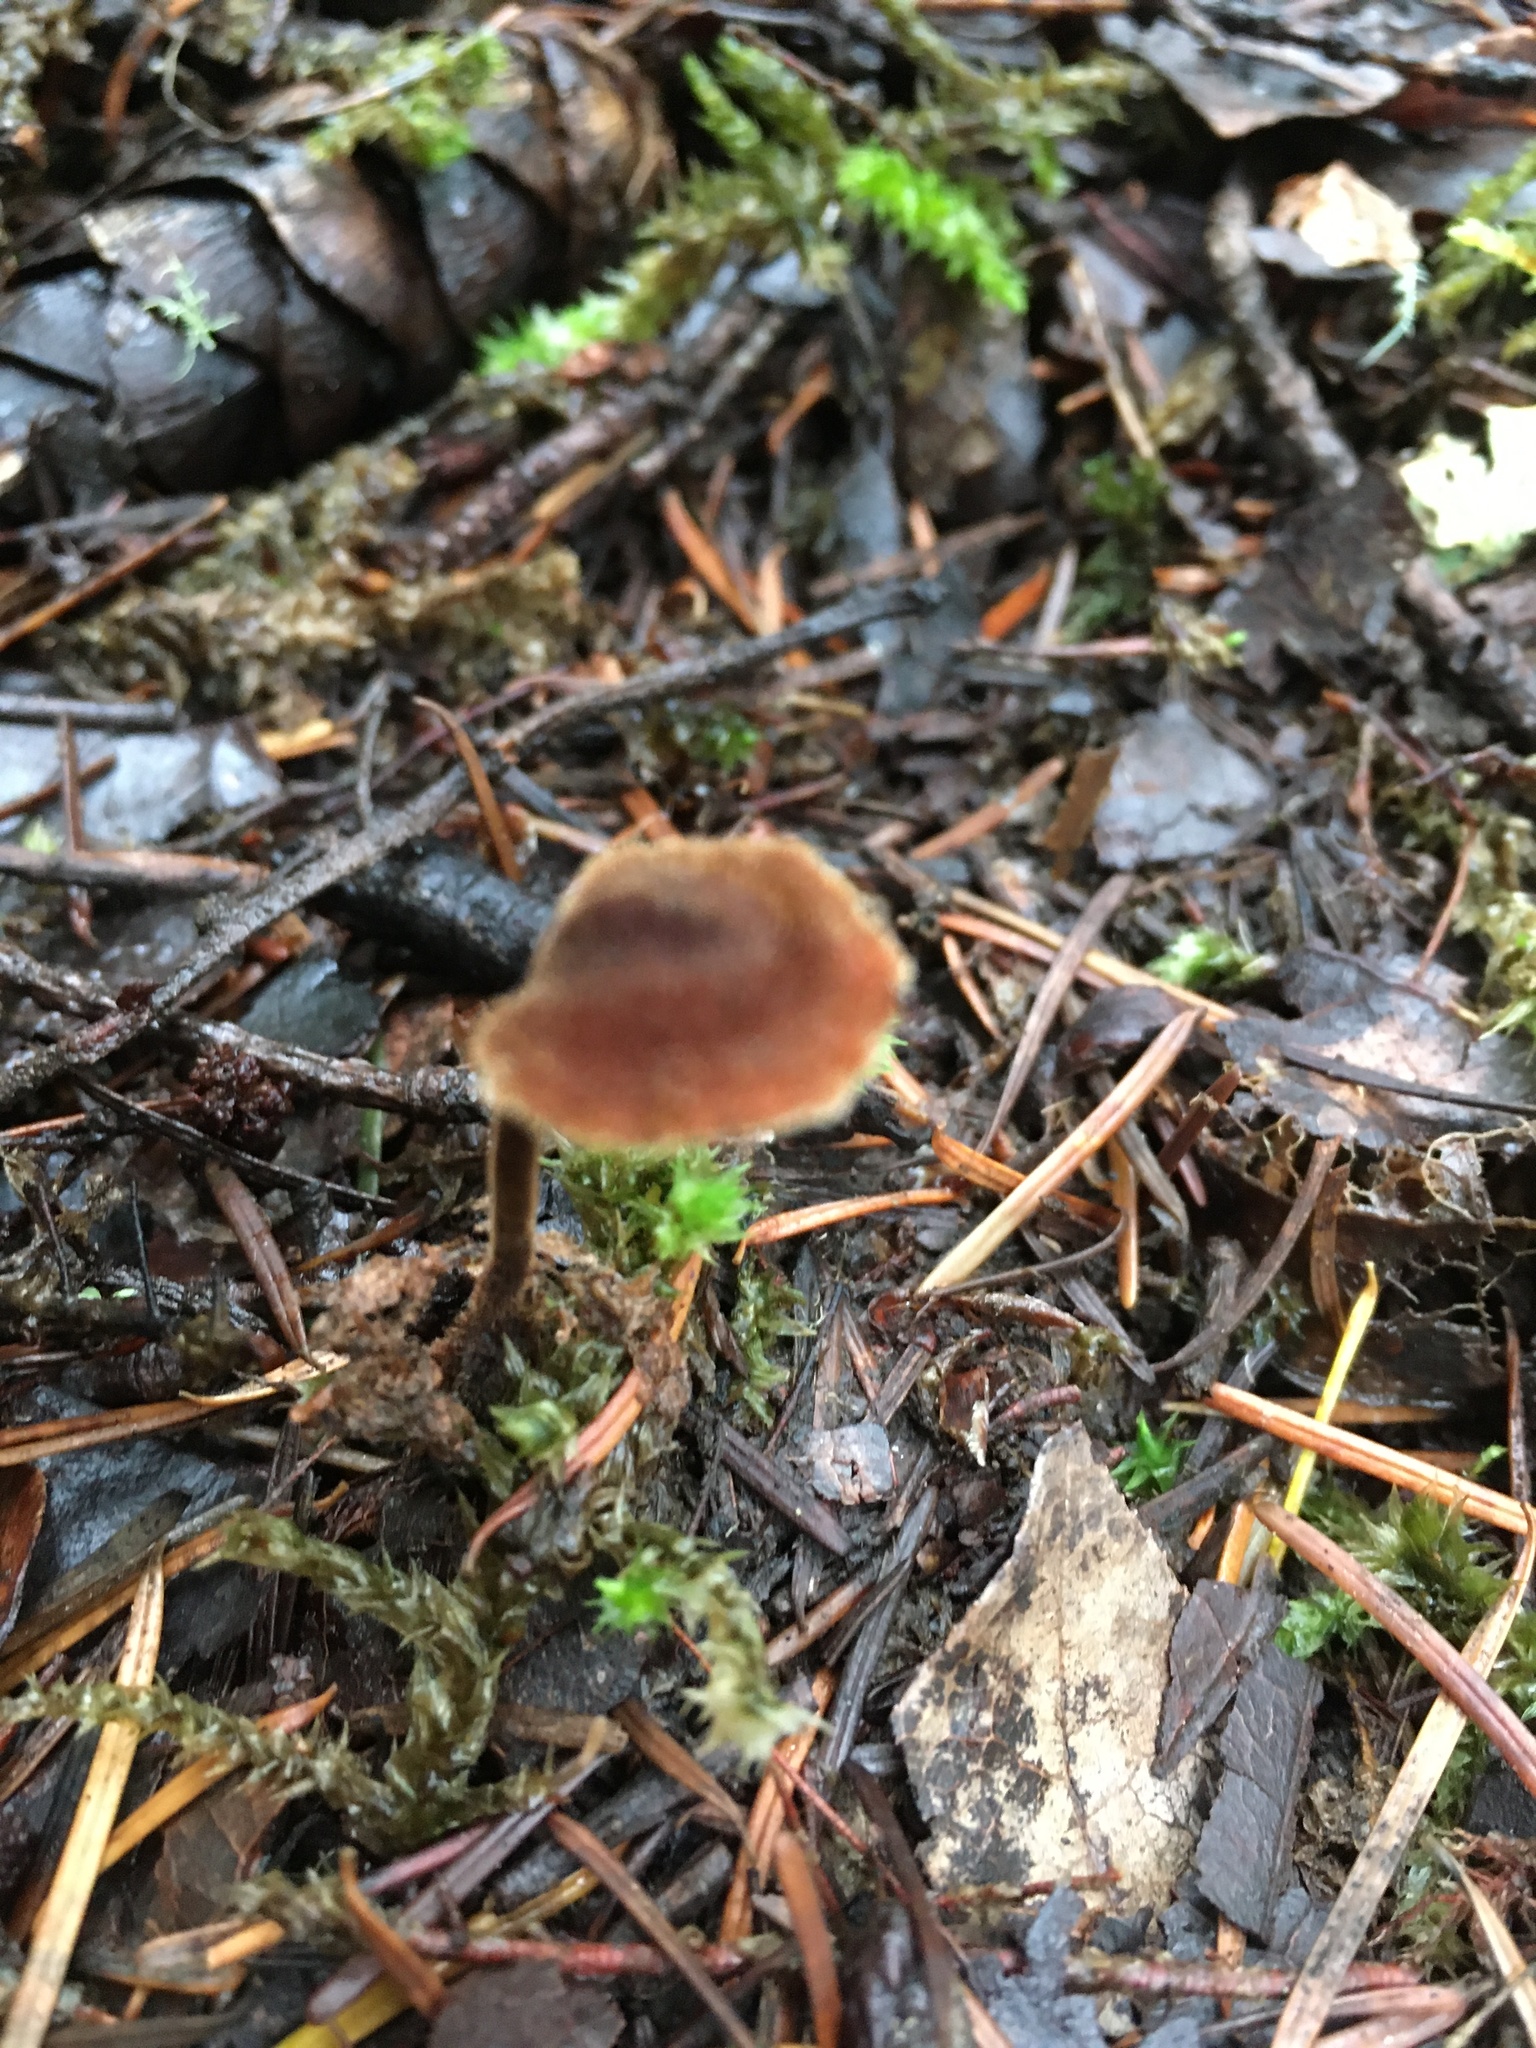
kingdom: Fungi
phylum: Basidiomycota
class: Agaricomycetes
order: Russulales
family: Auriscalpiaceae
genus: Auriscalpium
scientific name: Auriscalpium vulgare
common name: Earpick fungus
